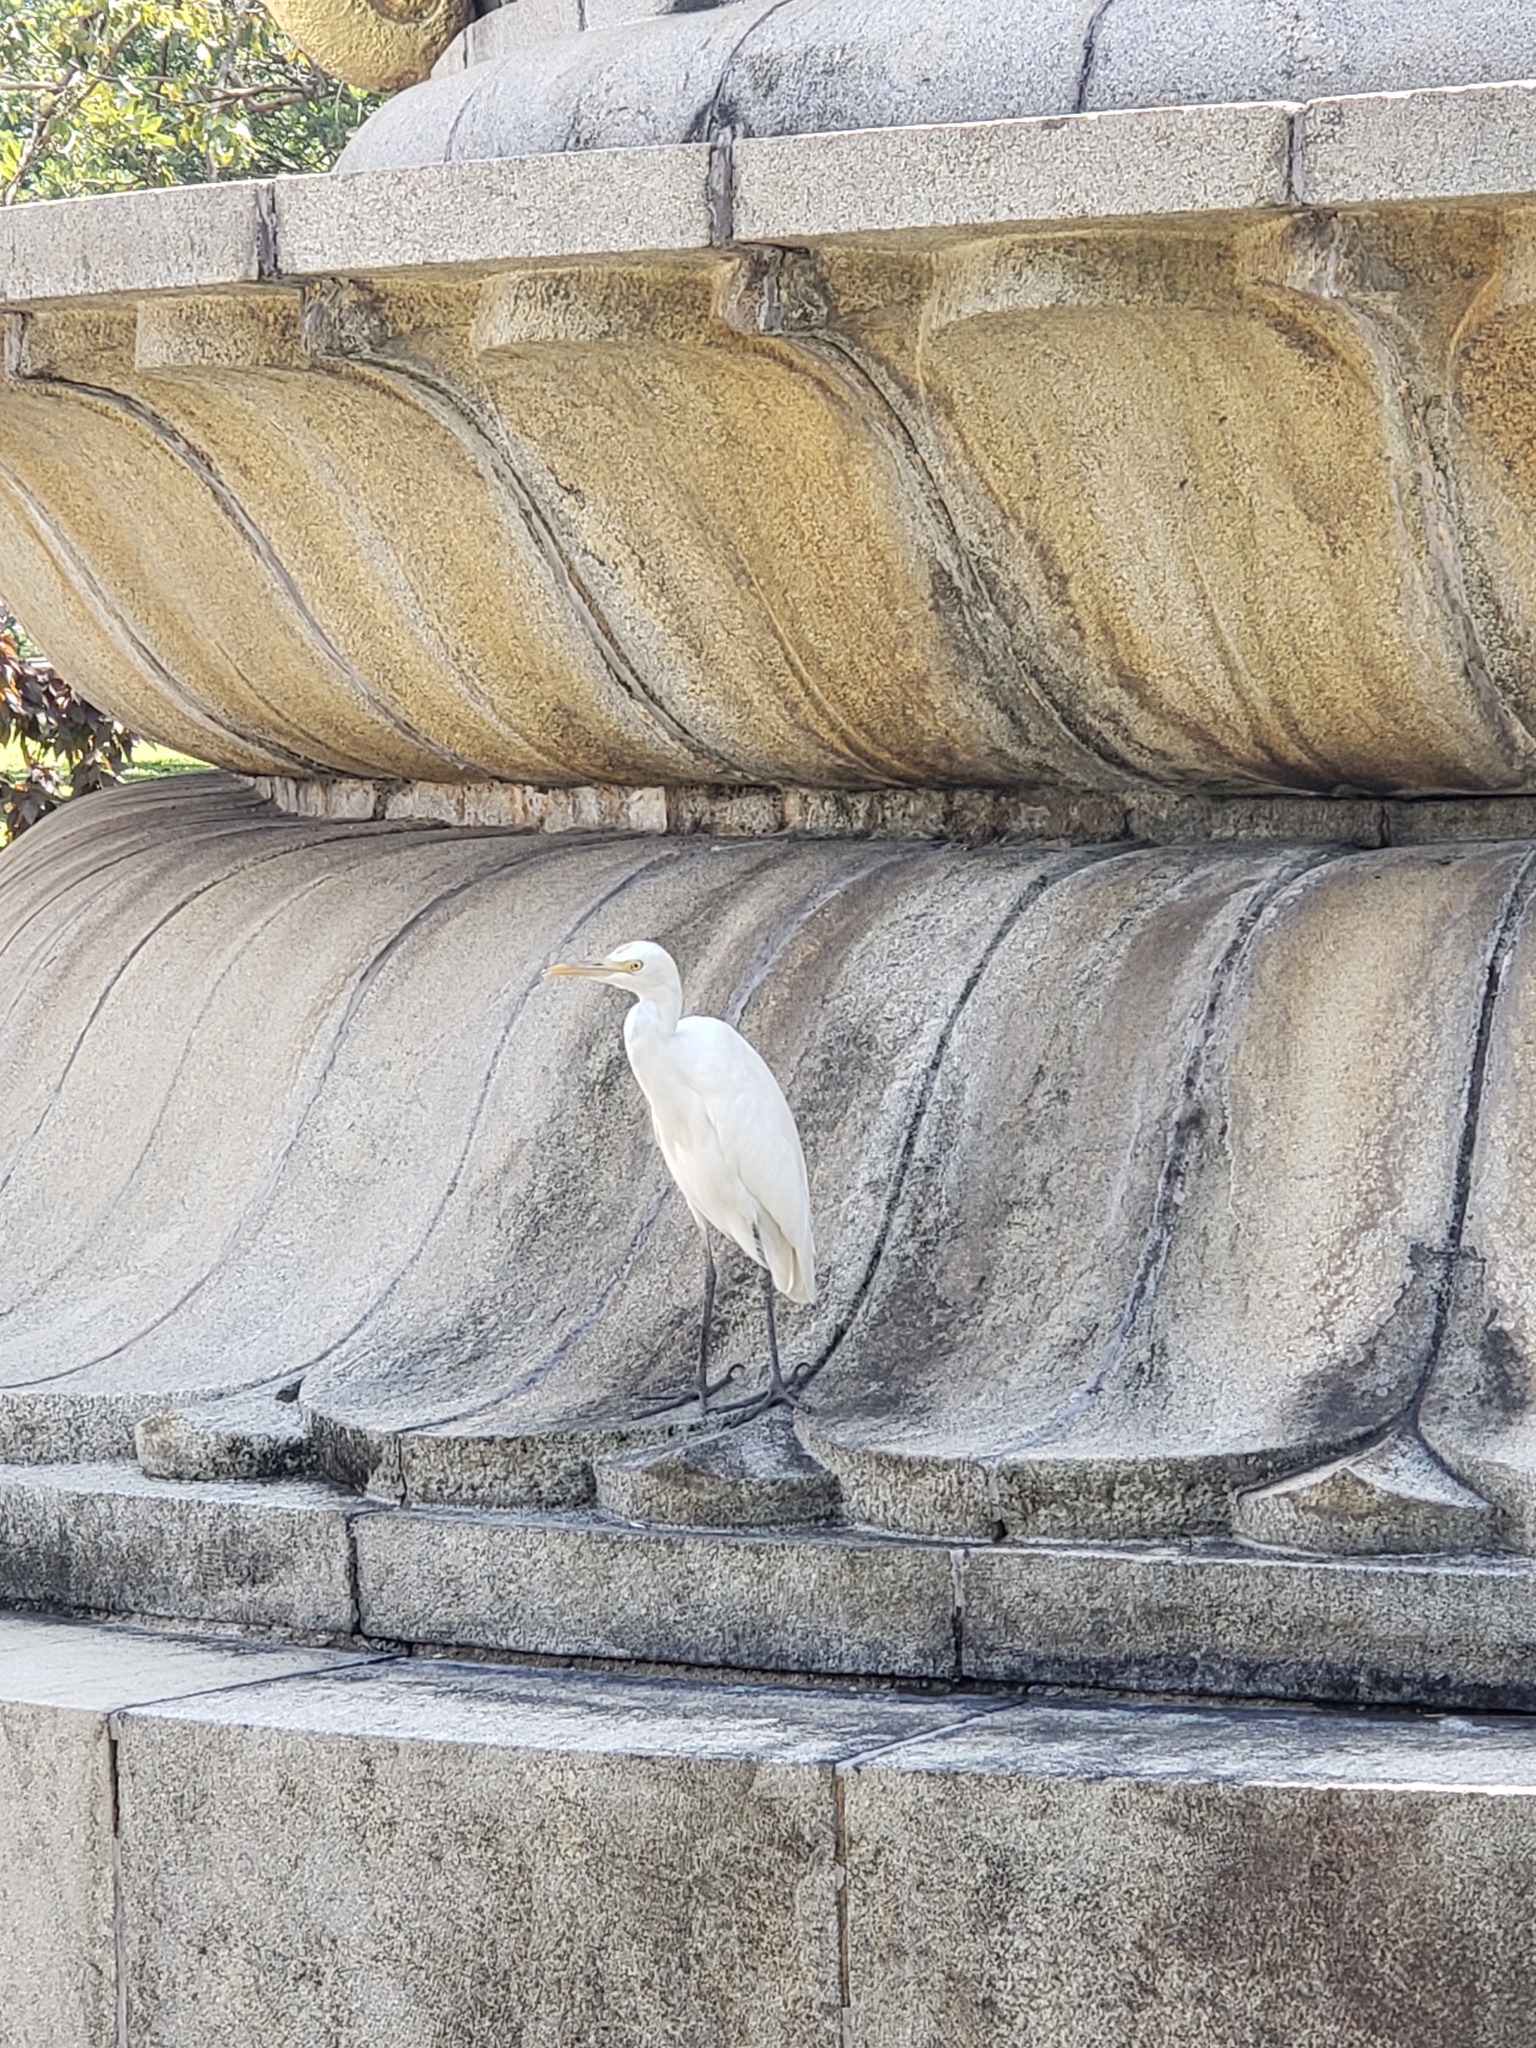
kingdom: Animalia
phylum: Chordata
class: Aves
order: Pelecaniformes
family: Ardeidae
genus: Bubulcus
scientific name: Bubulcus coromandus
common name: Eastern cattle egret
